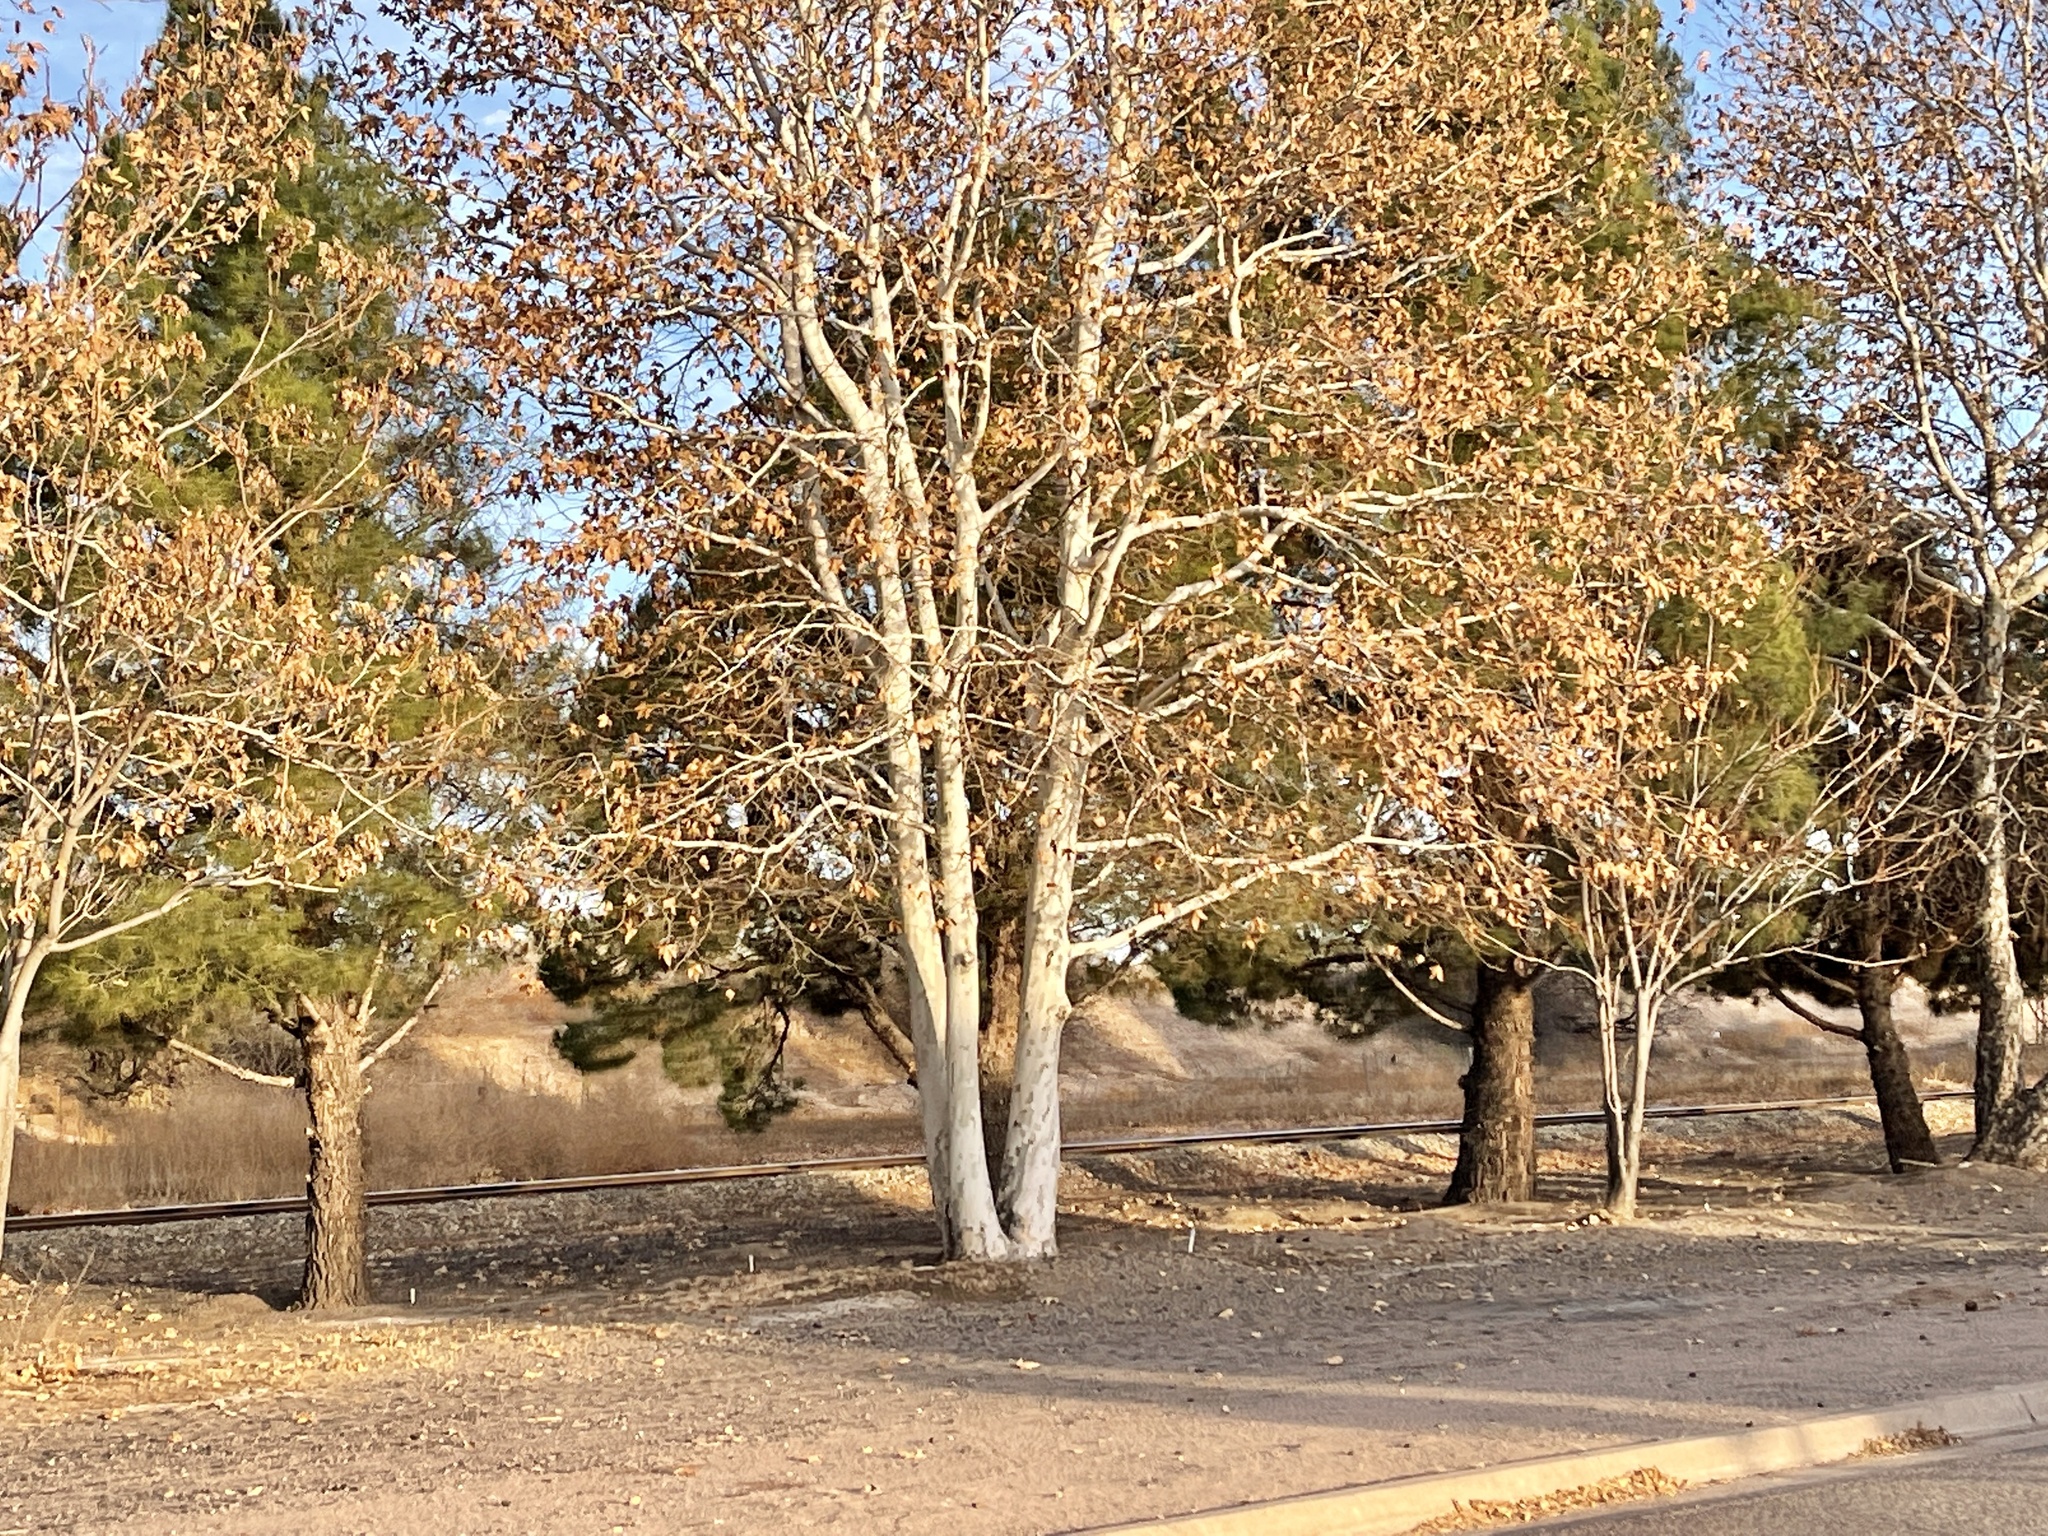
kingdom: Plantae
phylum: Tracheophyta
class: Magnoliopsida
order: Proteales
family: Platanaceae
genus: Platanus
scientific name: Platanus wrightii
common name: Arizona sycamore
